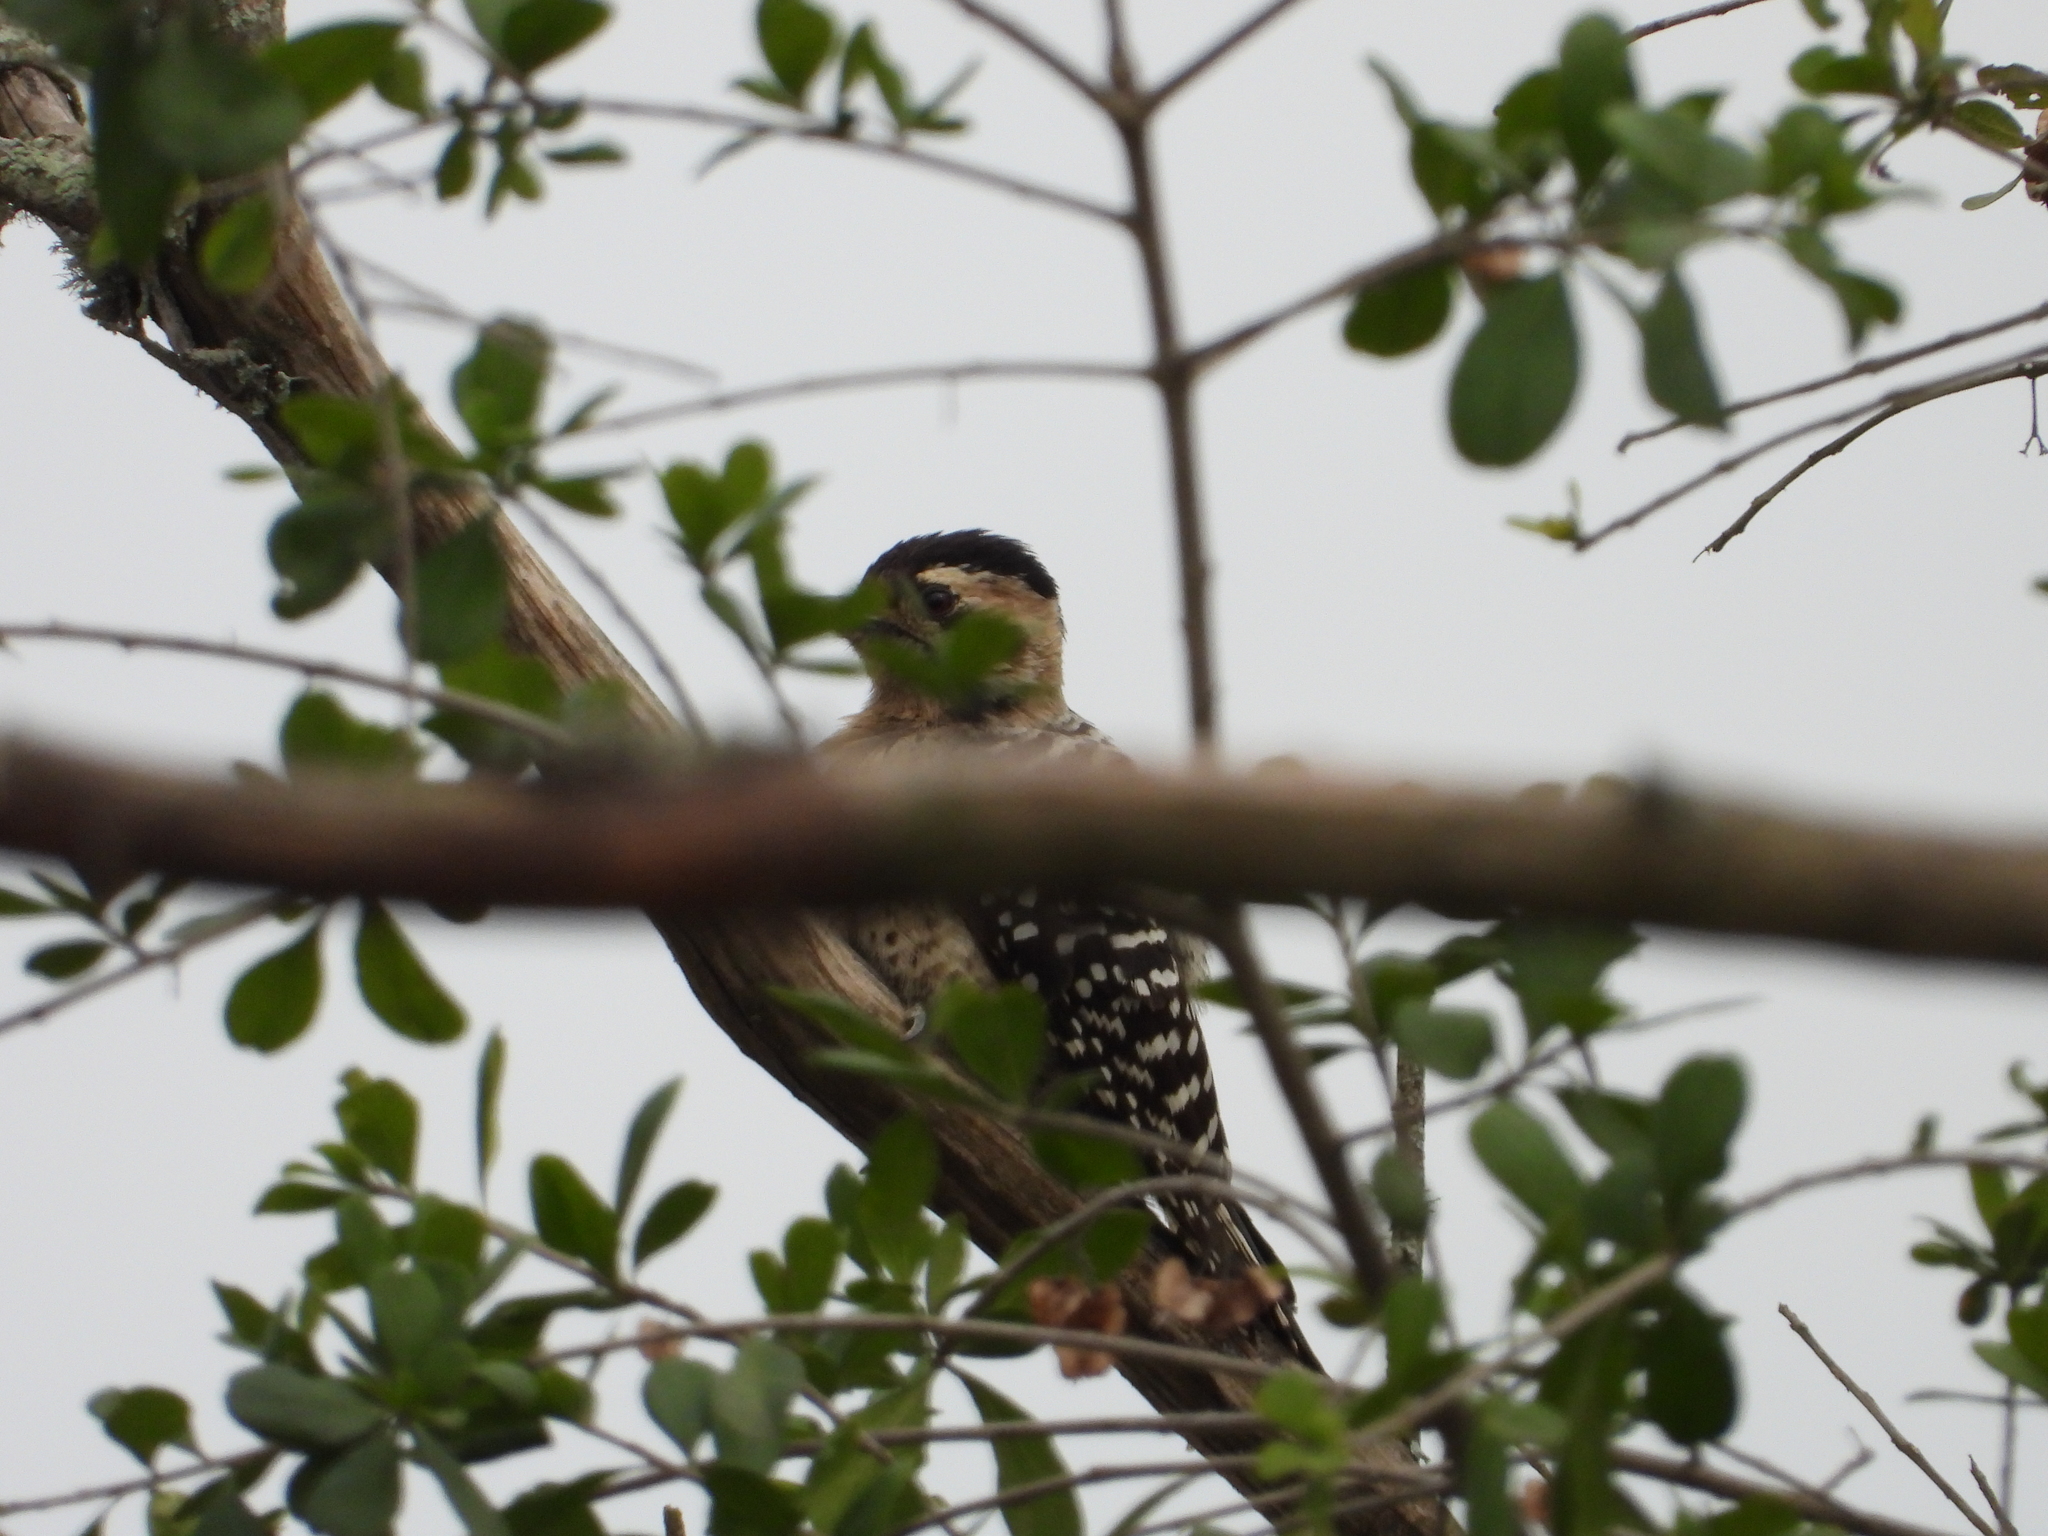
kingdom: Animalia
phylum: Chordata
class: Aves
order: Piciformes
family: Picidae
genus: Dryobates
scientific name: Dryobates scalaris
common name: Ladder-backed woodpecker
